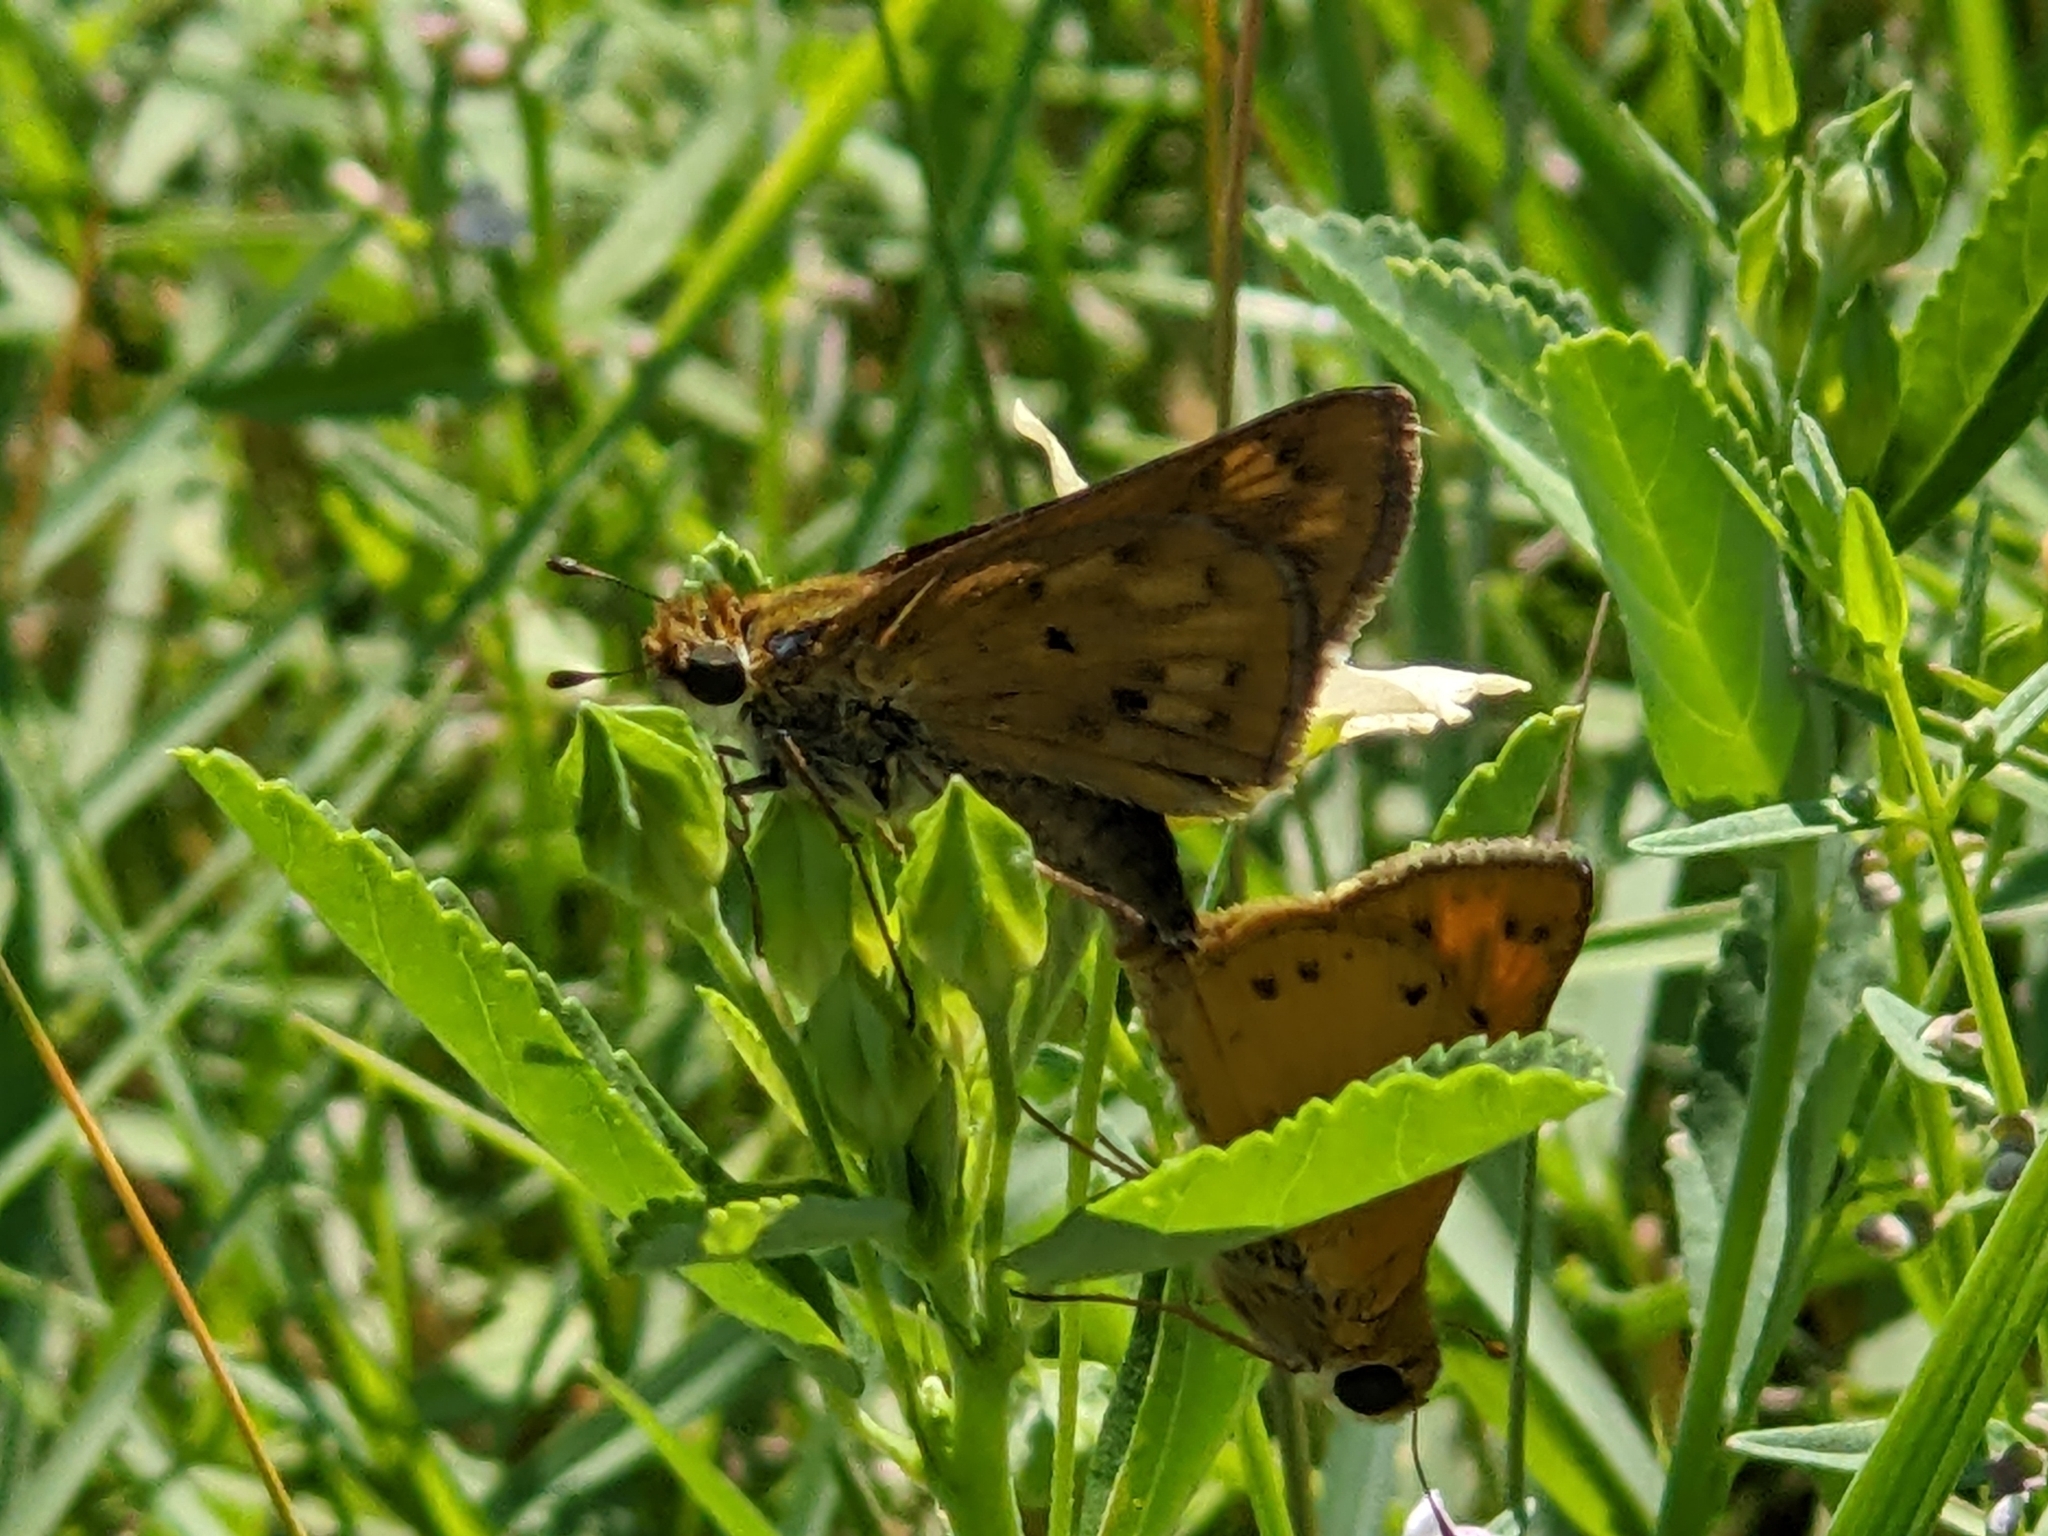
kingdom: Animalia
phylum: Arthropoda
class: Insecta
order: Lepidoptera
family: Hesperiidae
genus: Hylephila
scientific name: Hylephila phyleus
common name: Fiery skipper
